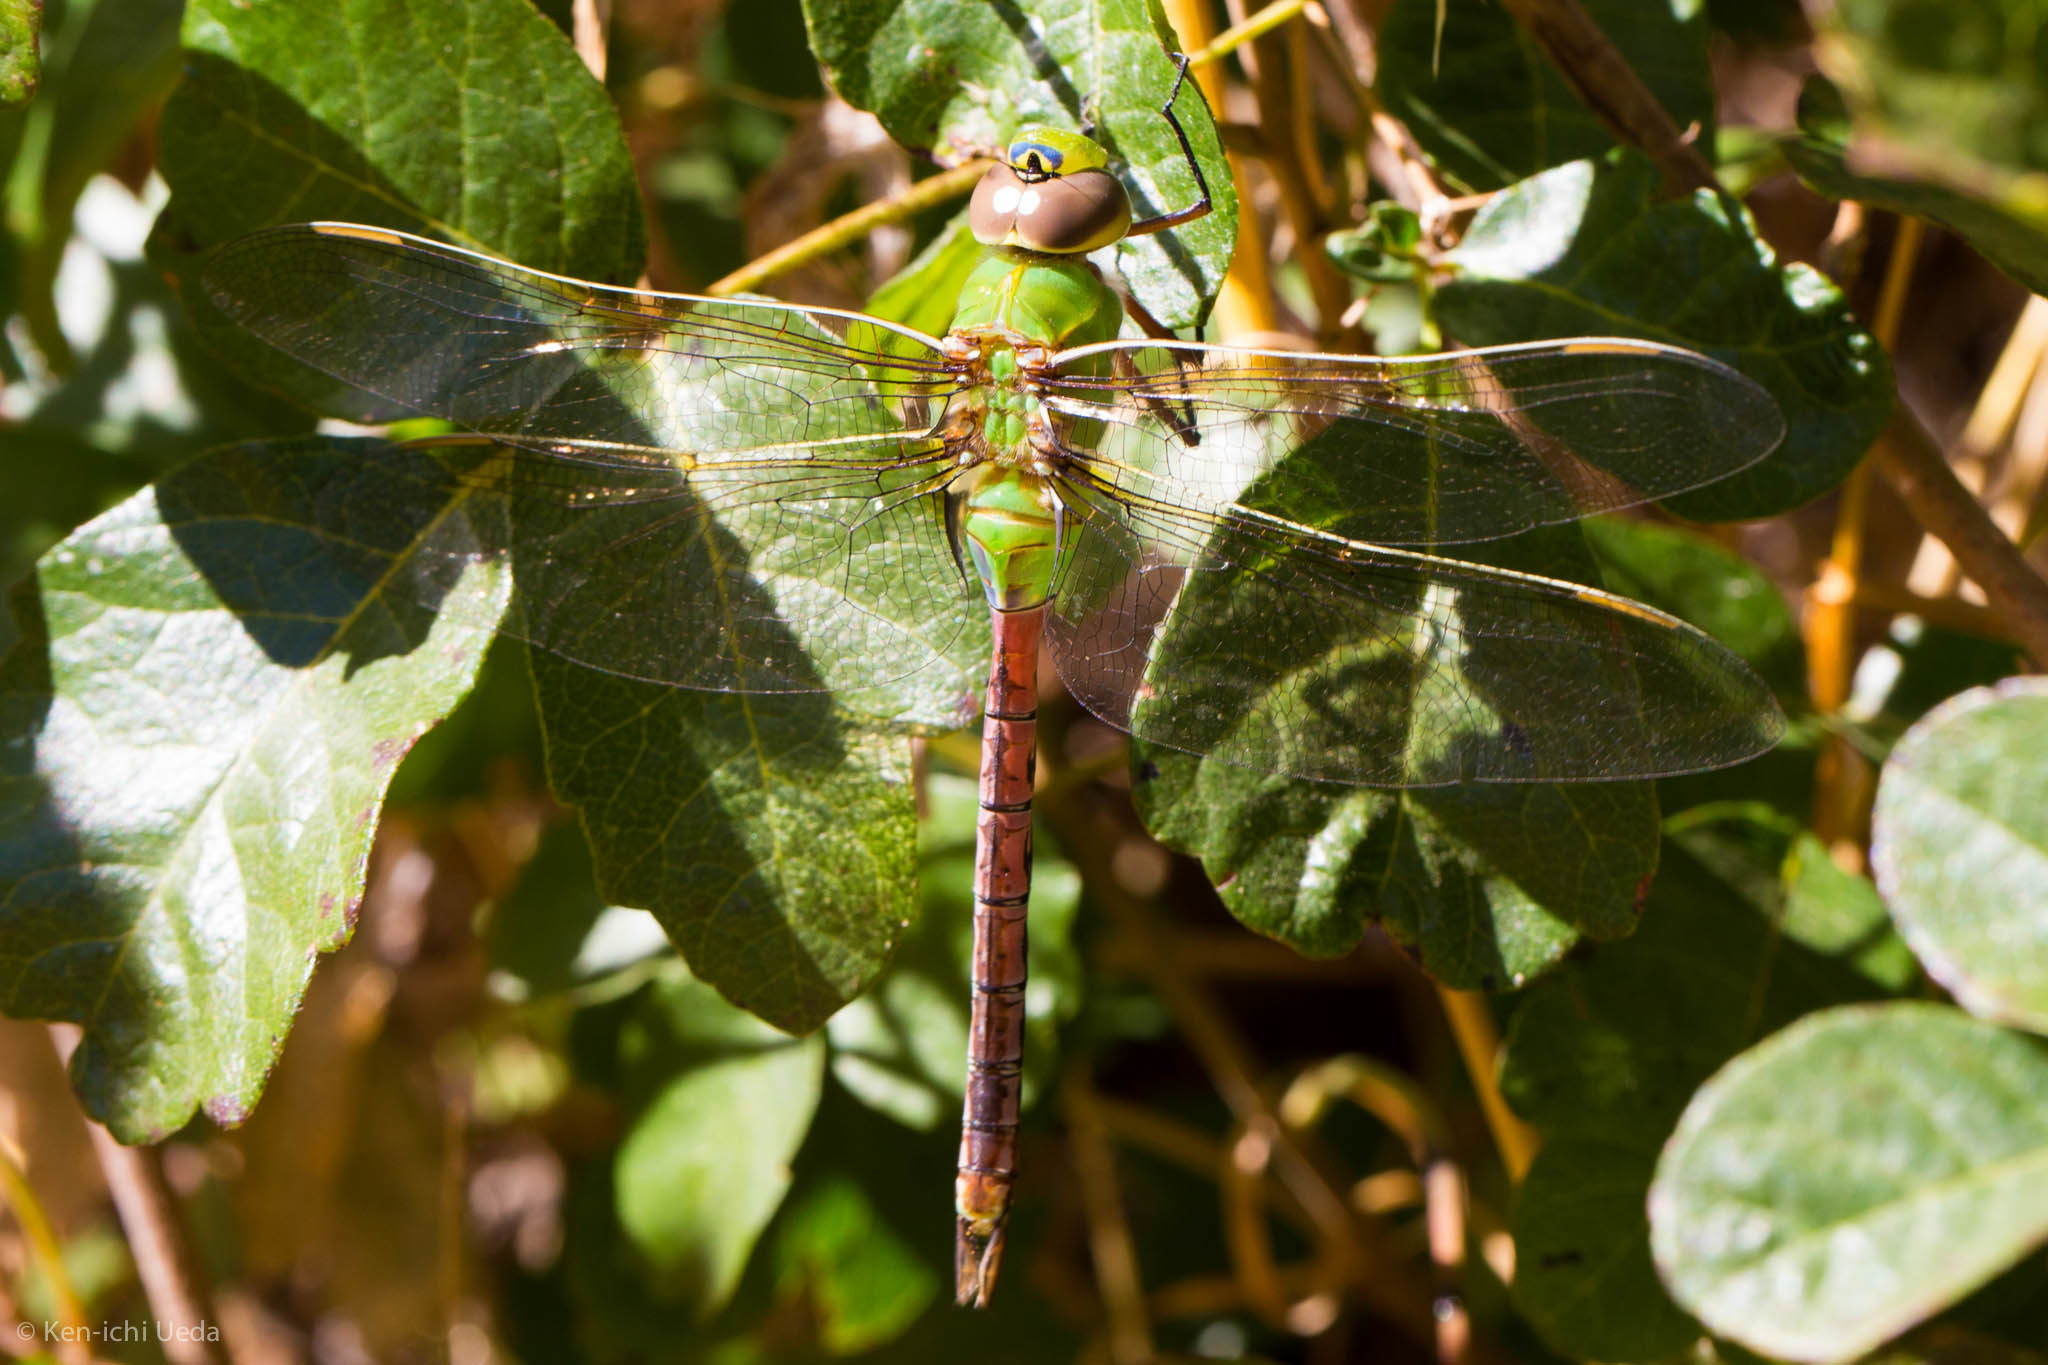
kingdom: Animalia
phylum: Arthropoda
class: Insecta
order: Odonata
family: Aeshnidae
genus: Anax
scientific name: Anax junius
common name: Common green darner
